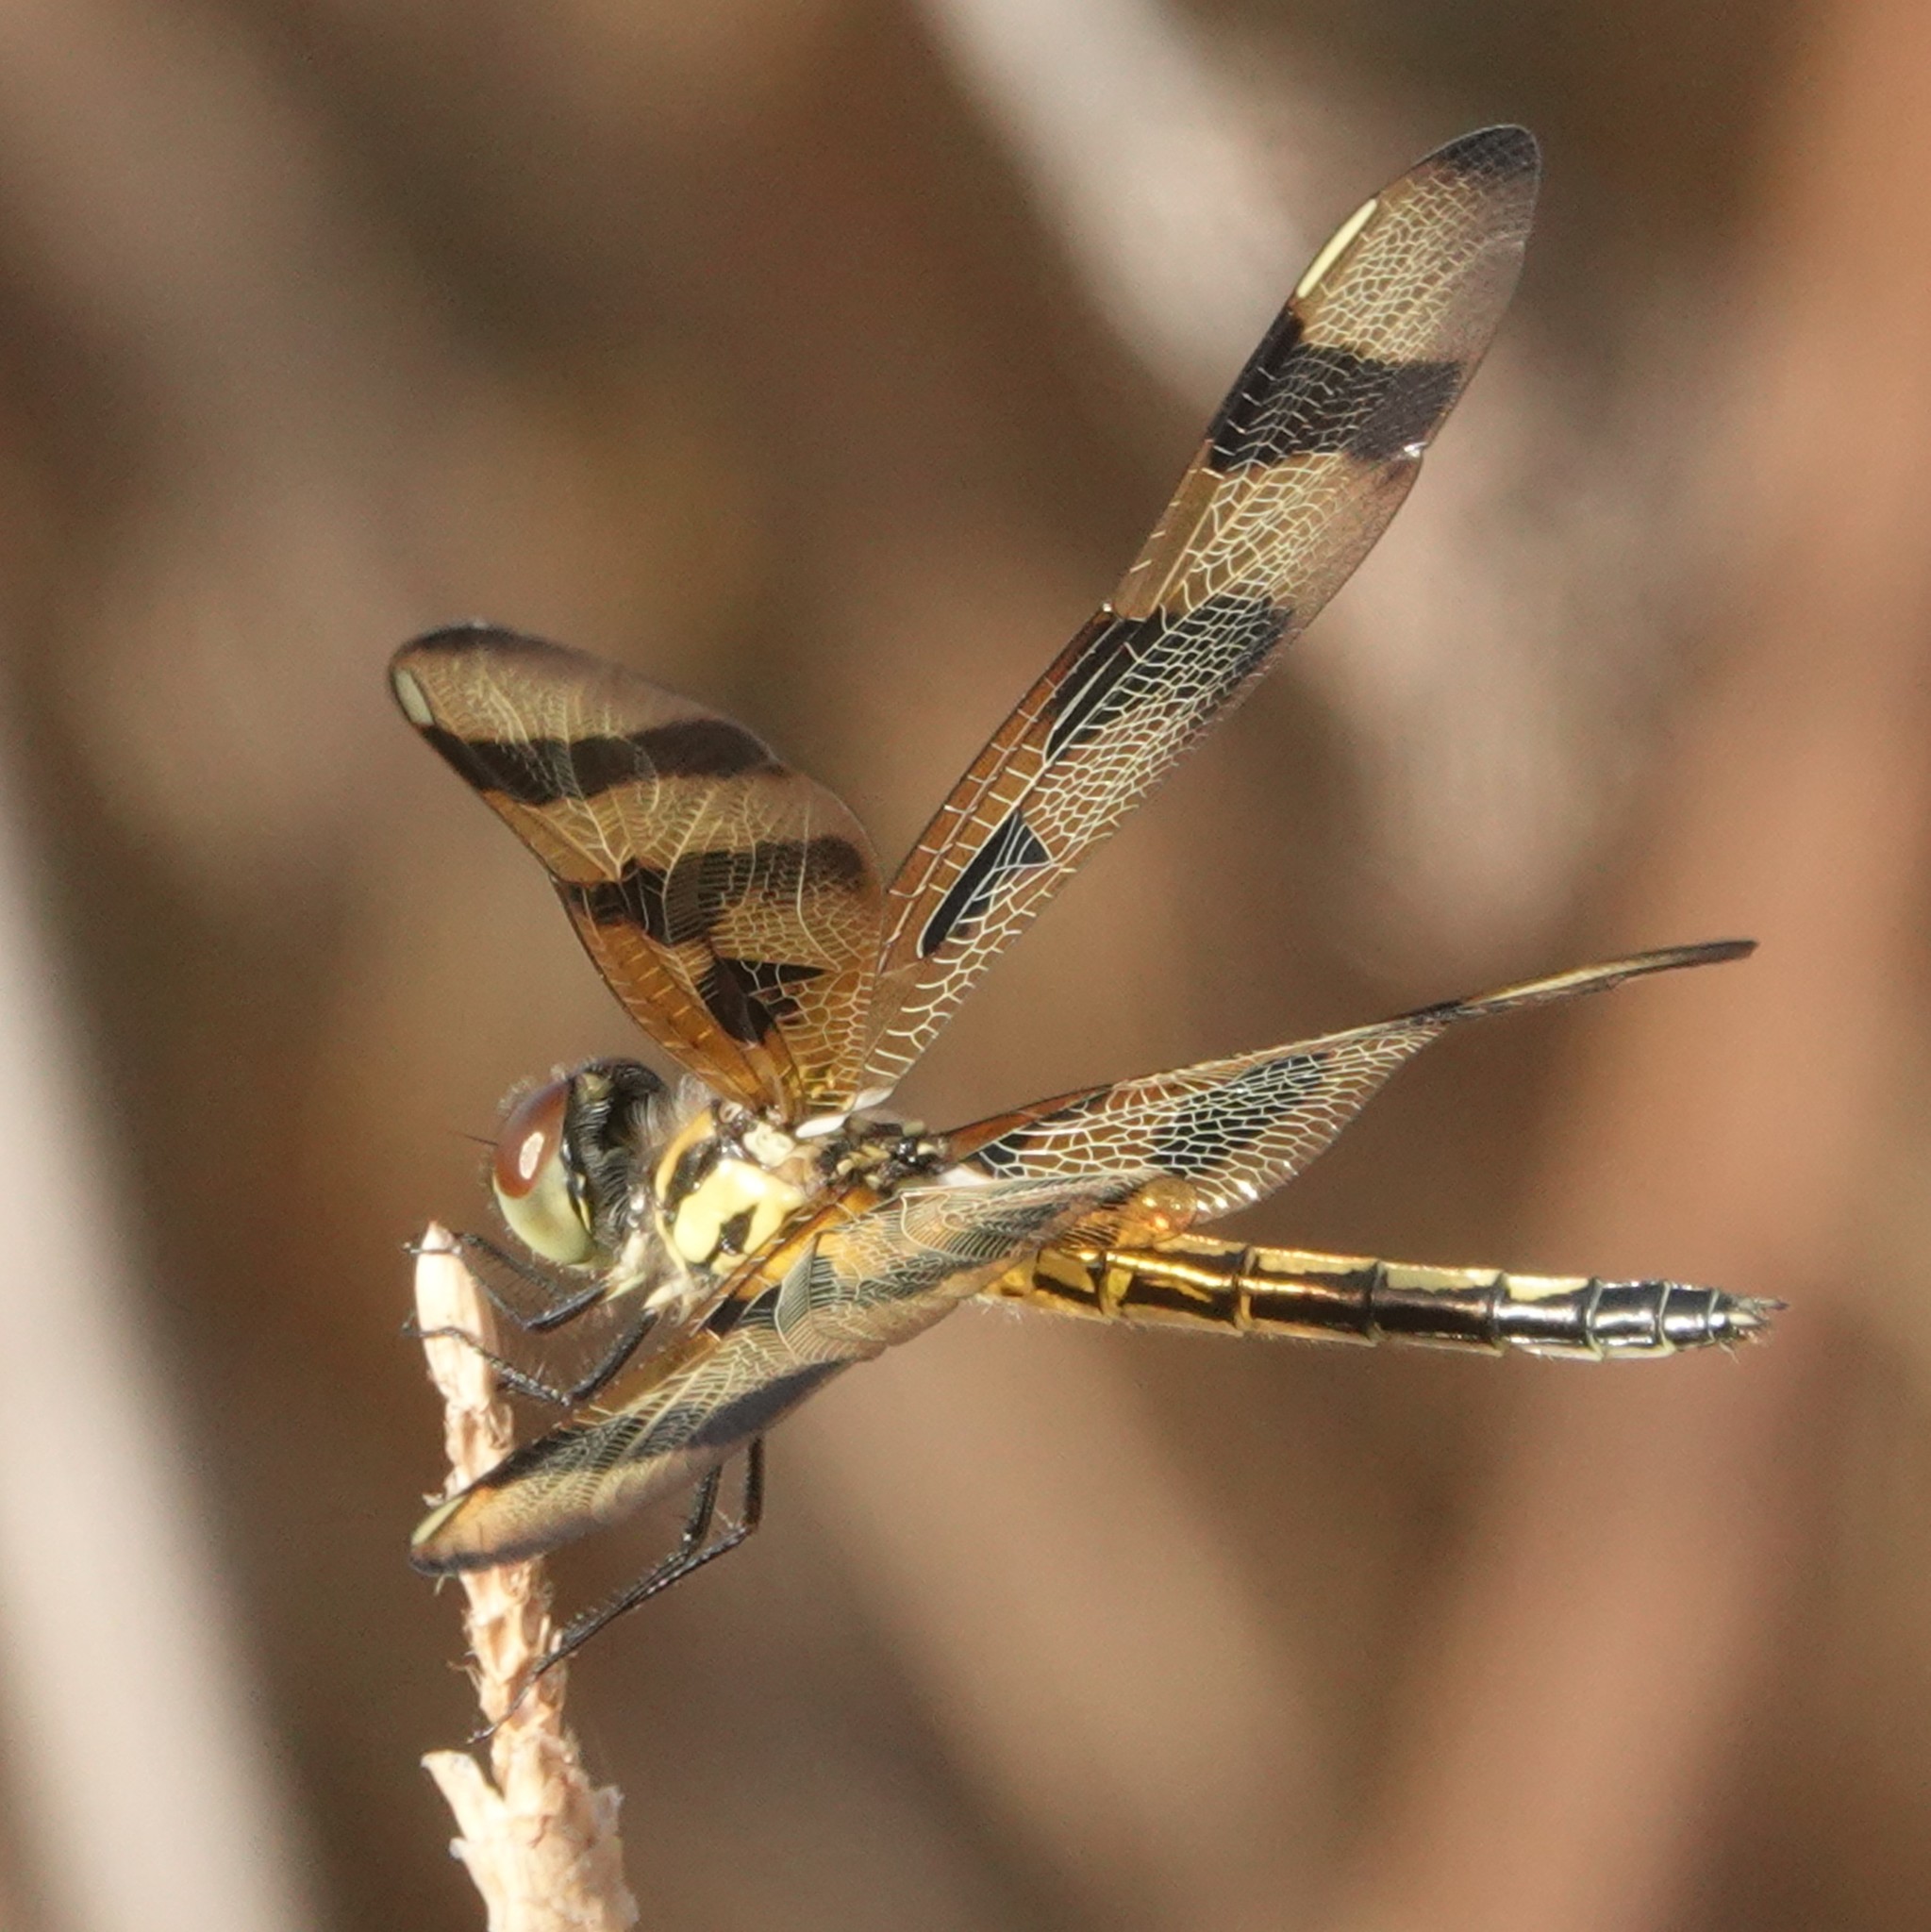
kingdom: Animalia
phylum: Arthropoda
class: Insecta
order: Odonata
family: Libellulidae
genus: Celithemis
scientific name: Celithemis eponina
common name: Halloween pennant
